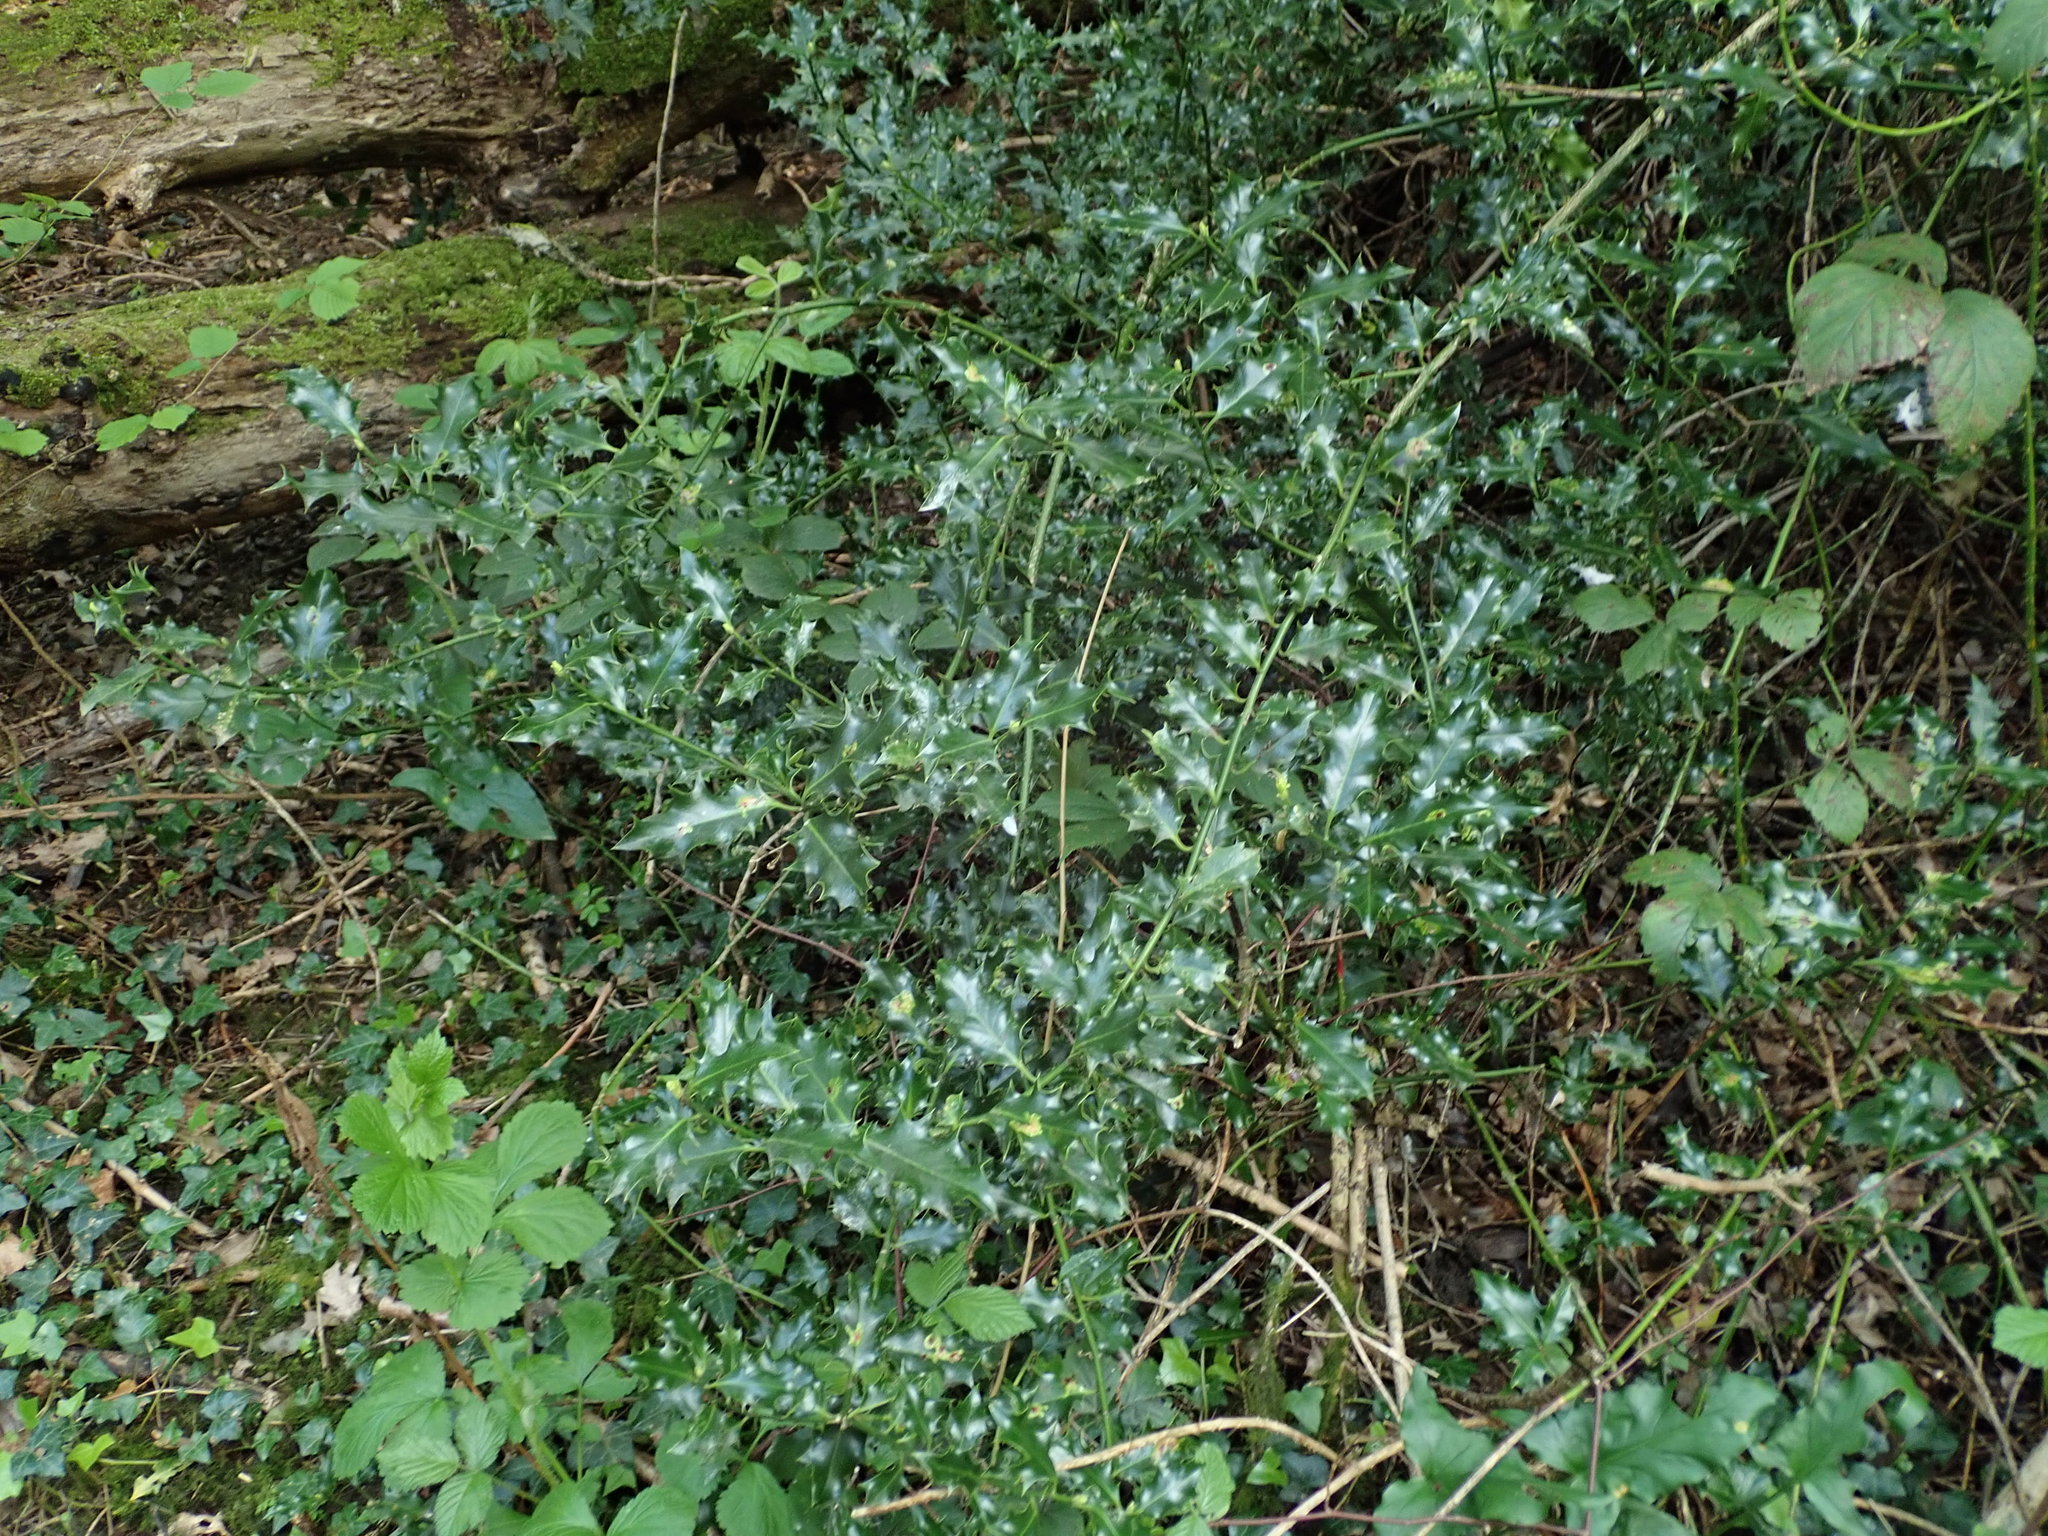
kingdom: Plantae
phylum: Tracheophyta
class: Magnoliopsida
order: Aquifoliales
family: Aquifoliaceae
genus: Ilex
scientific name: Ilex aquifolium
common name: English holly
